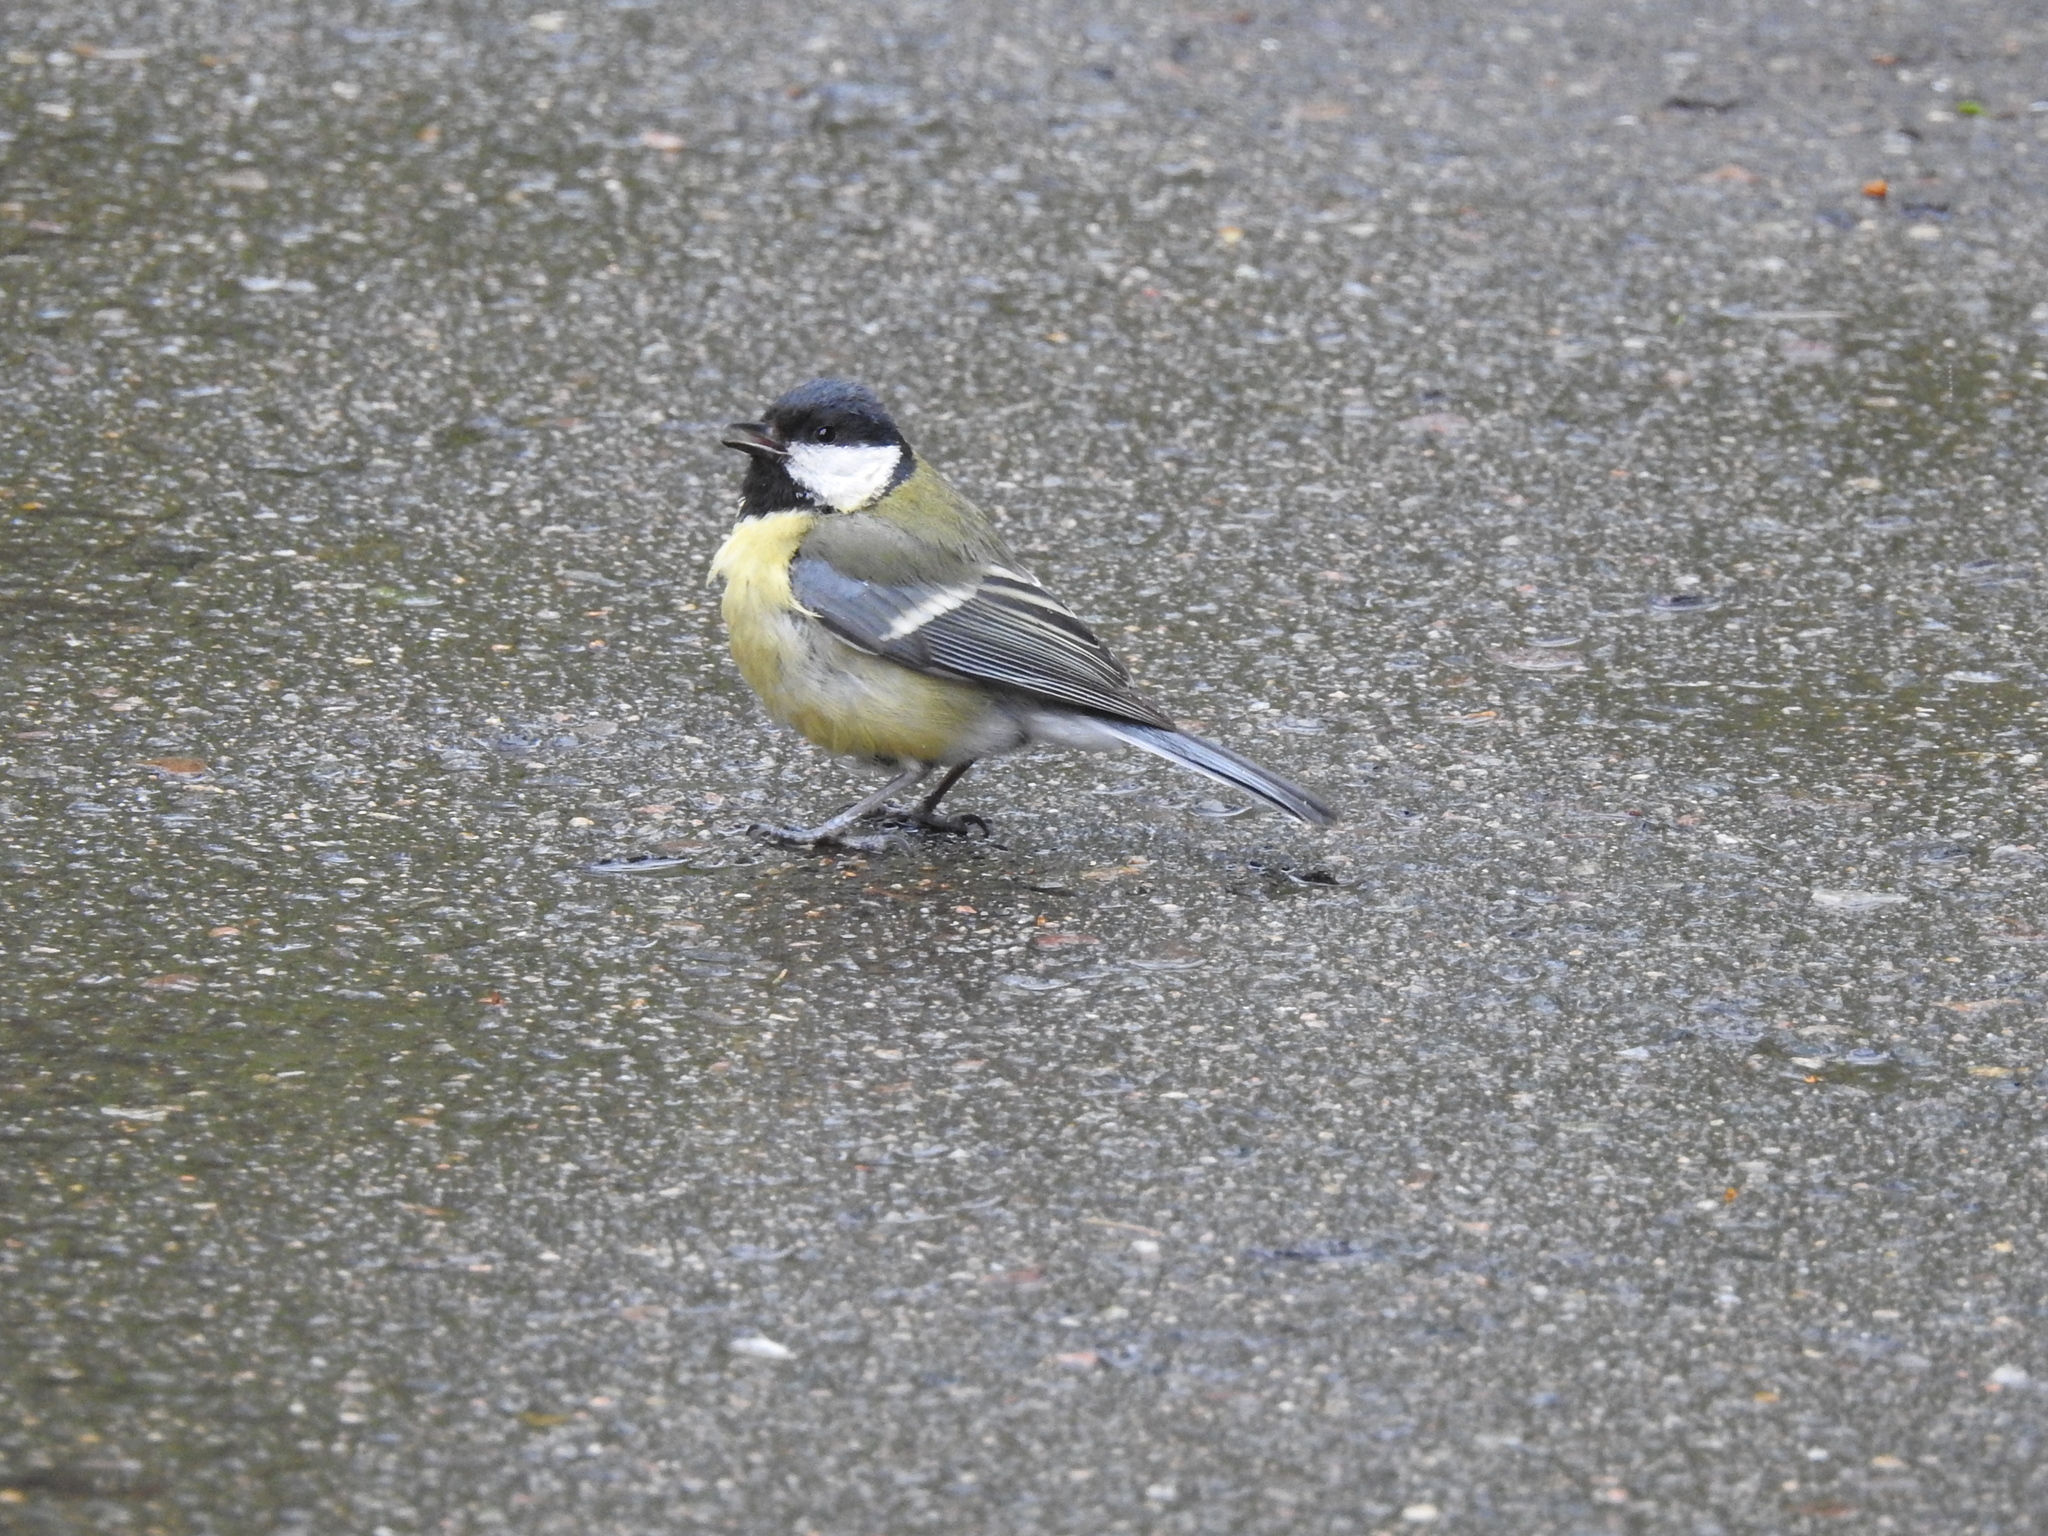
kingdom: Animalia
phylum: Chordata
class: Aves
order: Passeriformes
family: Paridae
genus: Parus
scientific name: Parus major
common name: Great tit
